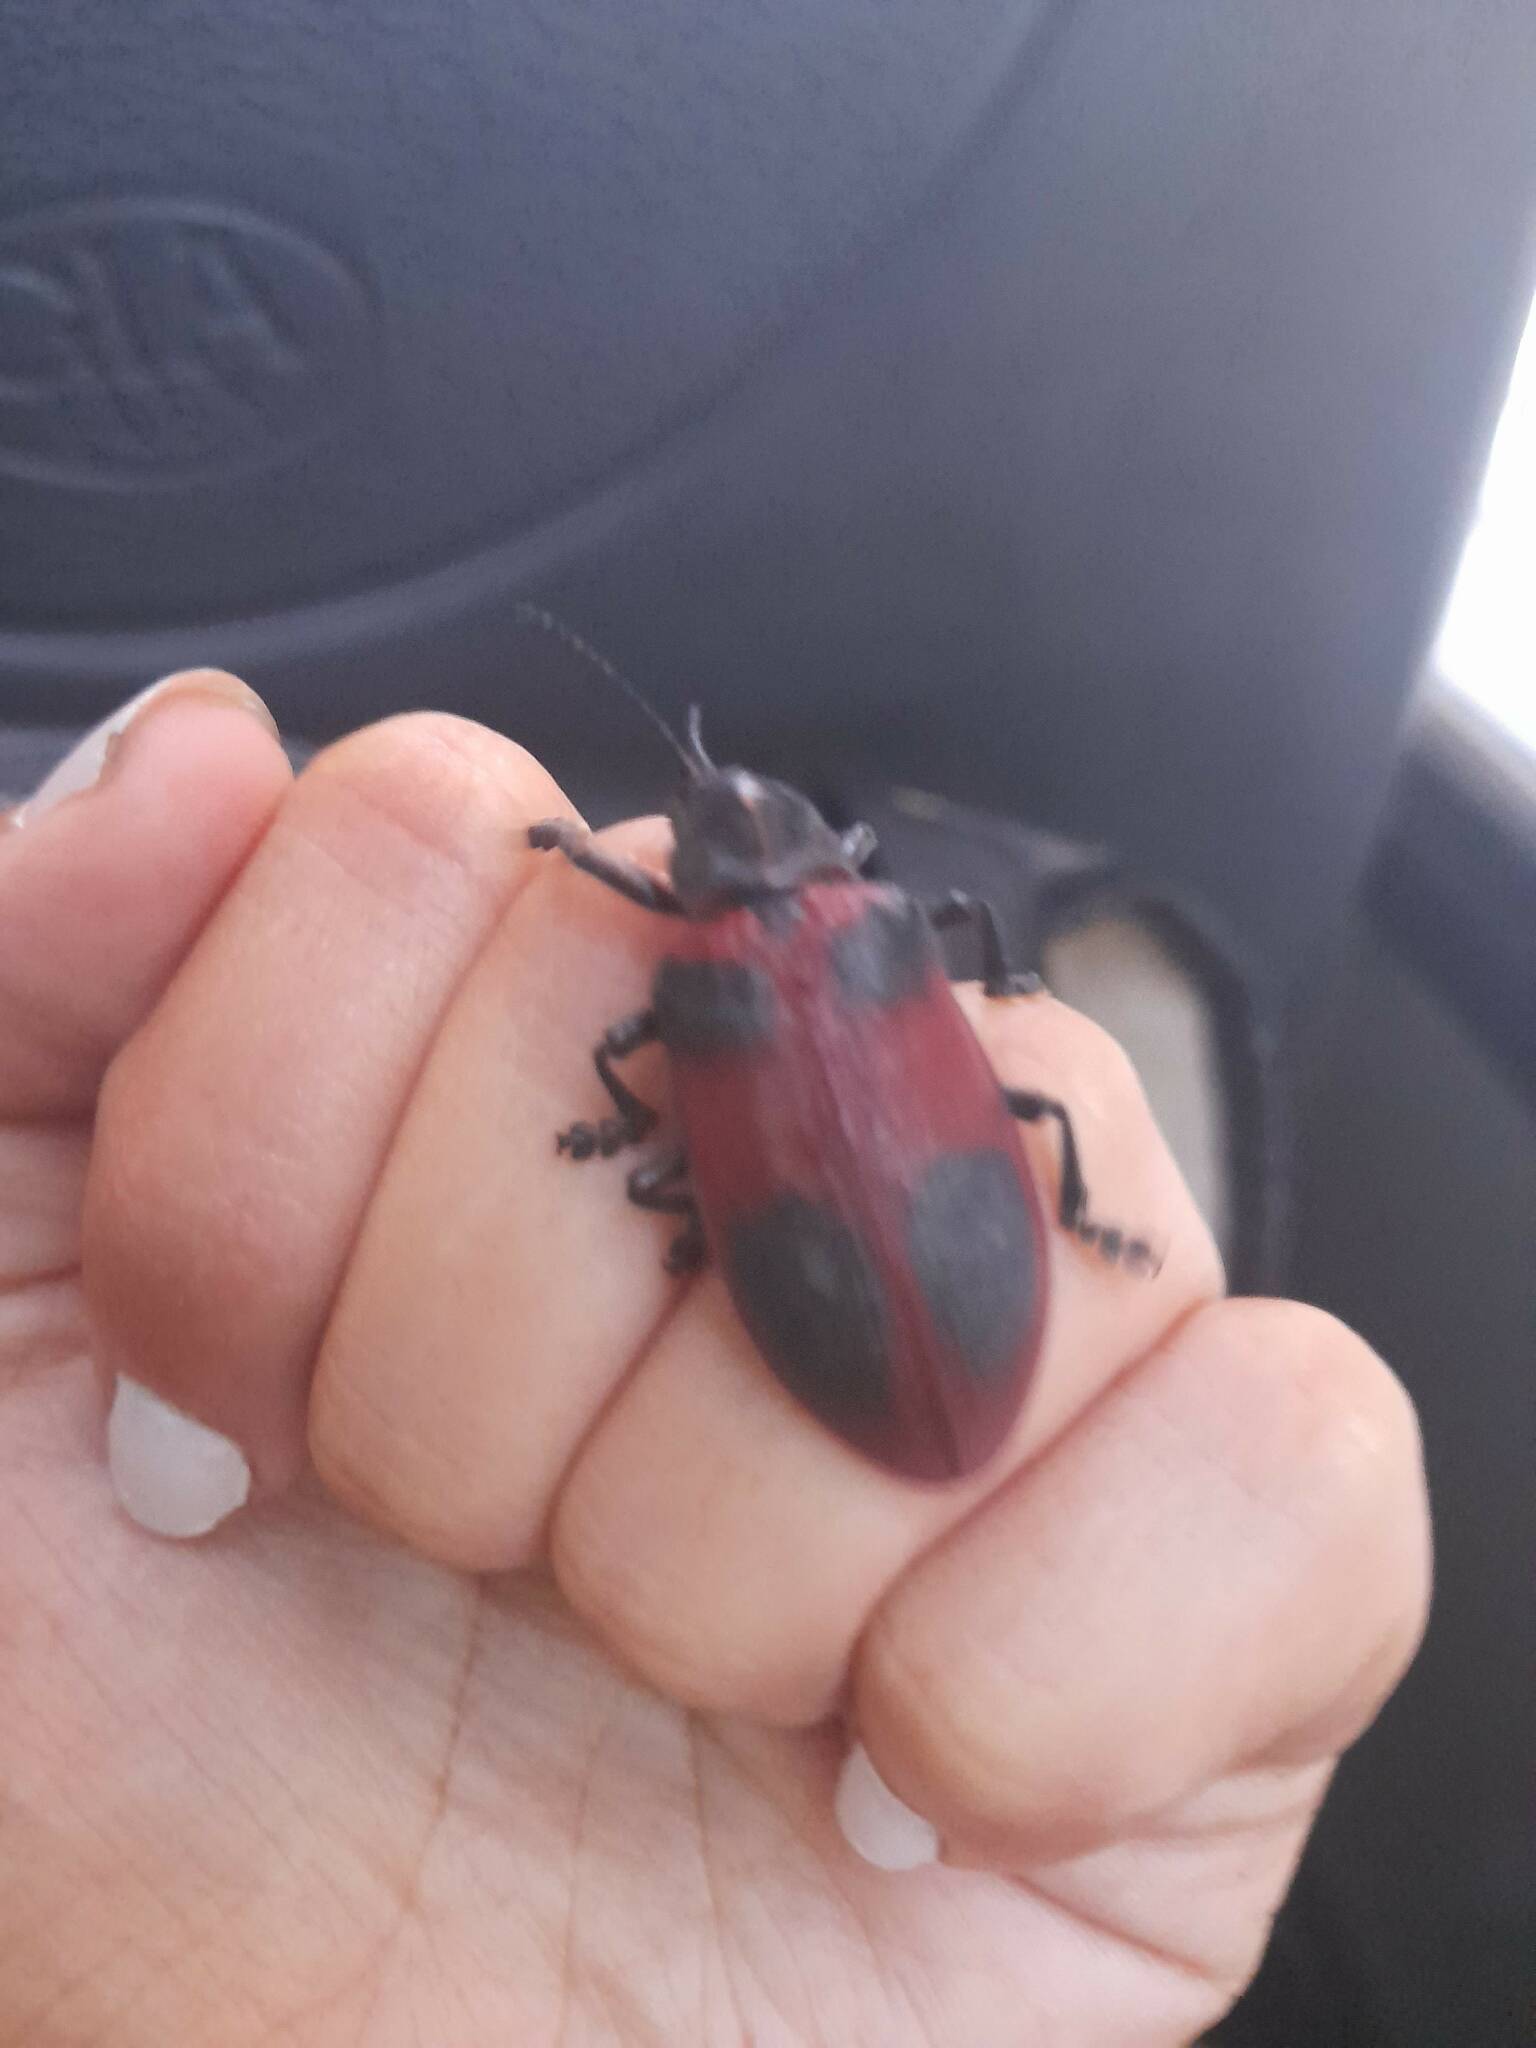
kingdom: Animalia
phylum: Arthropoda
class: Insecta
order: Coleoptera
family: Chrysomelidae
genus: Coraliomela
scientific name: Coraliomela quadrimaculata
